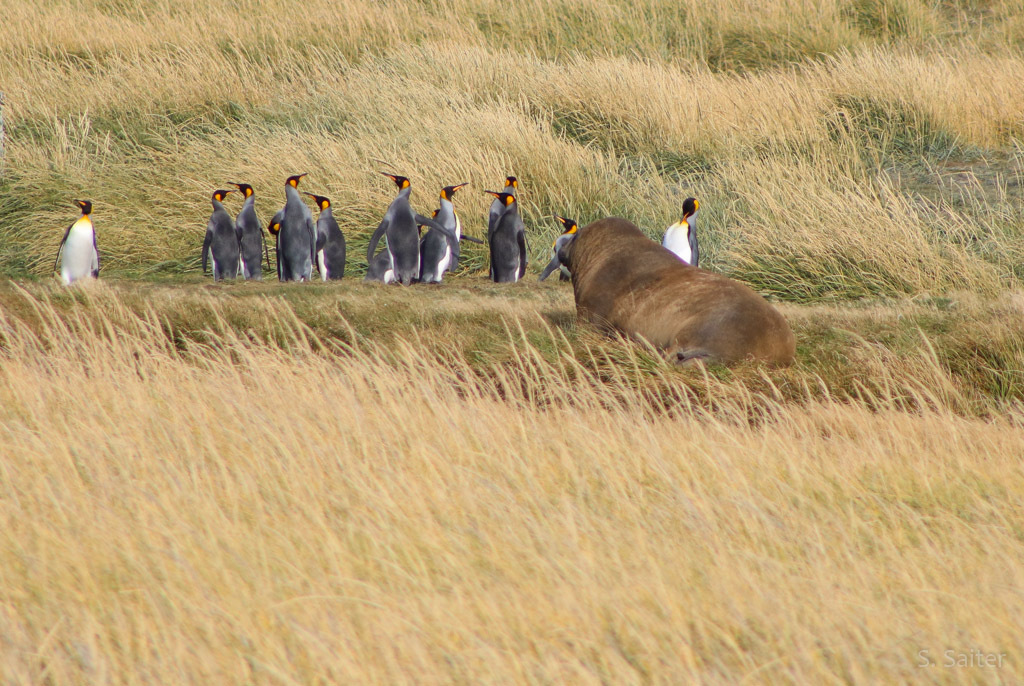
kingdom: Animalia
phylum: Chordata
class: Mammalia
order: Carnivora
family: Phocidae
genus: Mirounga
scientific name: Mirounga leonina
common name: Southern elephant seal
